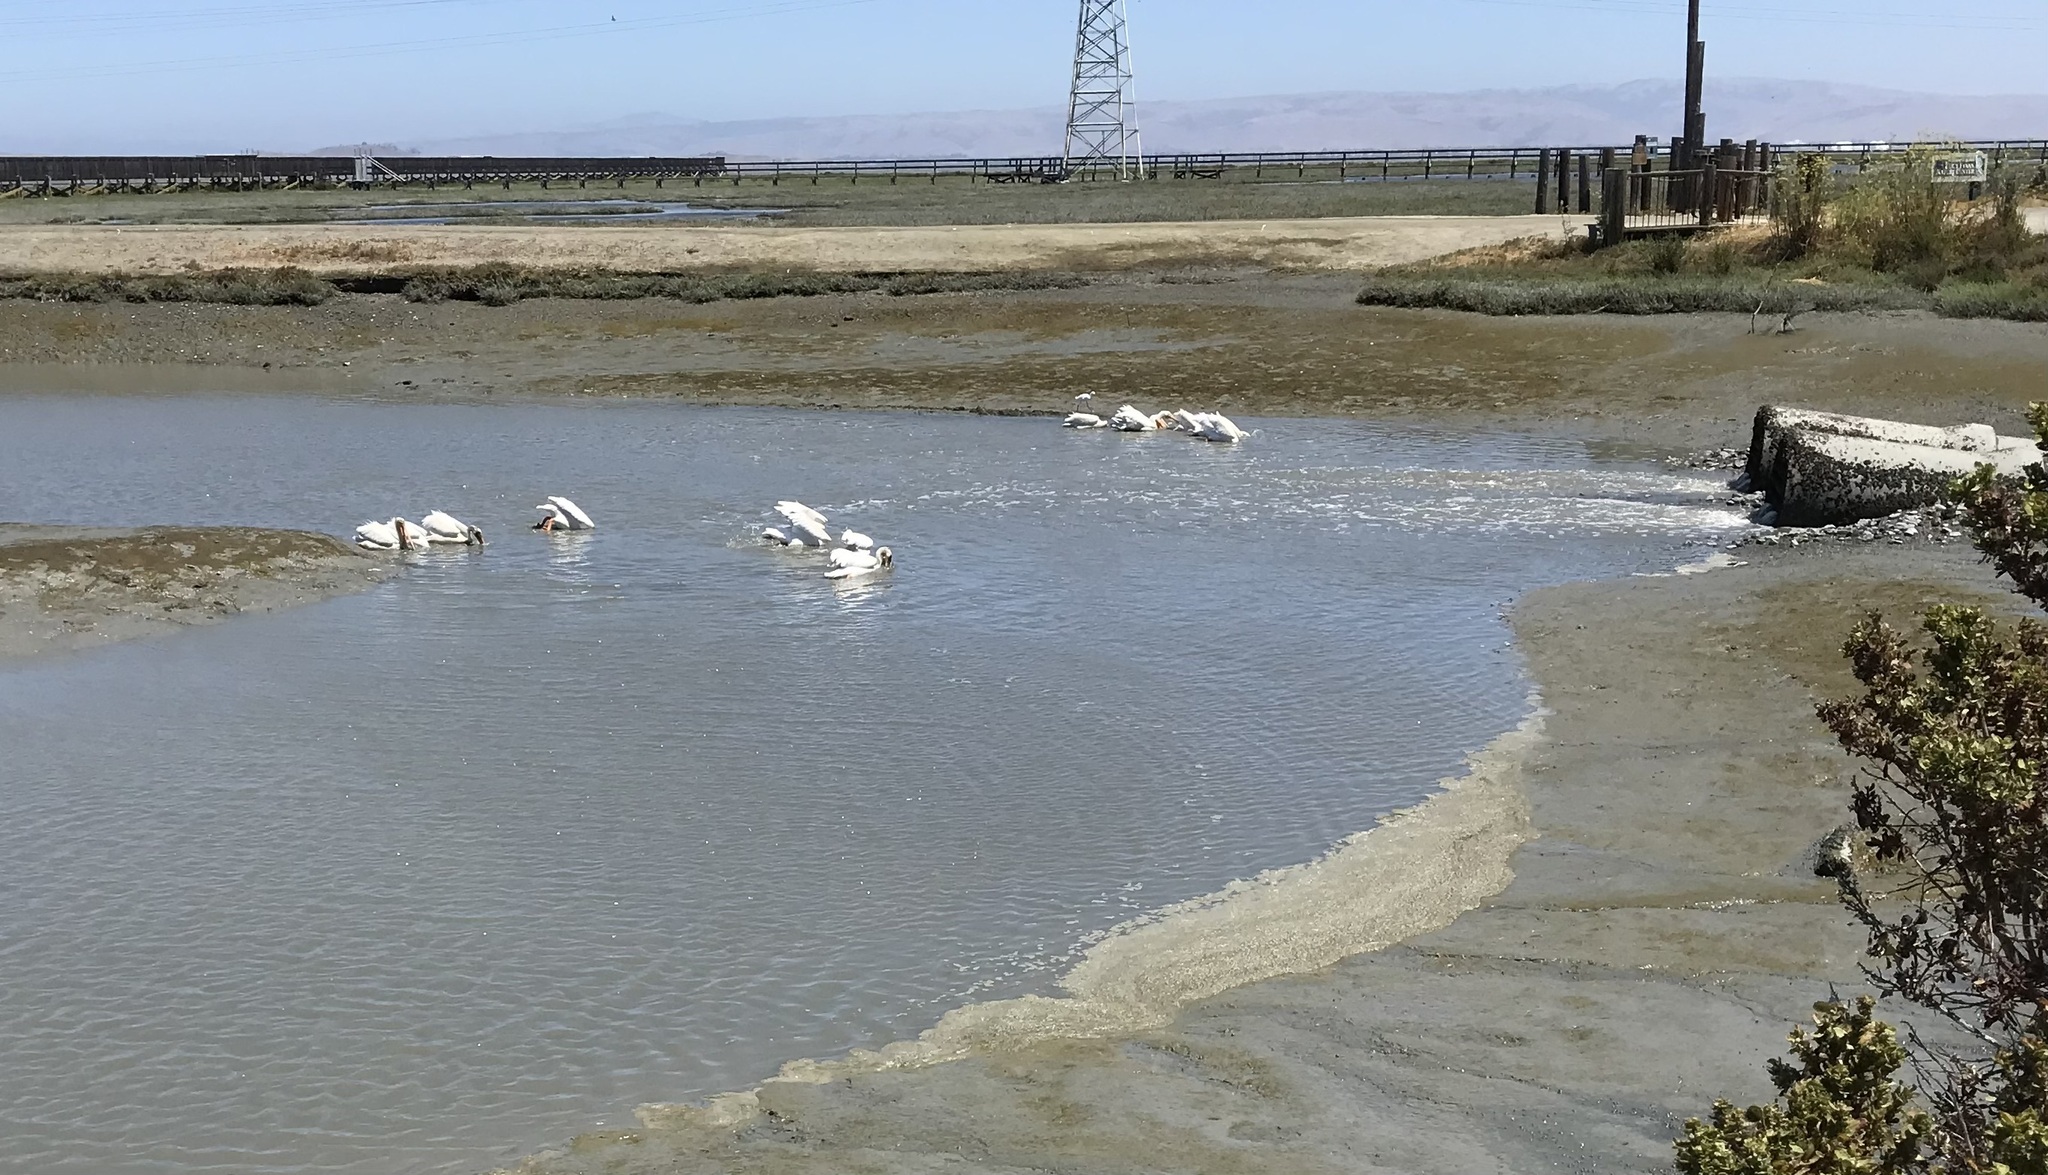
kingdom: Animalia
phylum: Chordata
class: Aves
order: Pelecaniformes
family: Pelecanidae
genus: Pelecanus
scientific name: Pelecanus erythrorhynchos
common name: American white pelican
